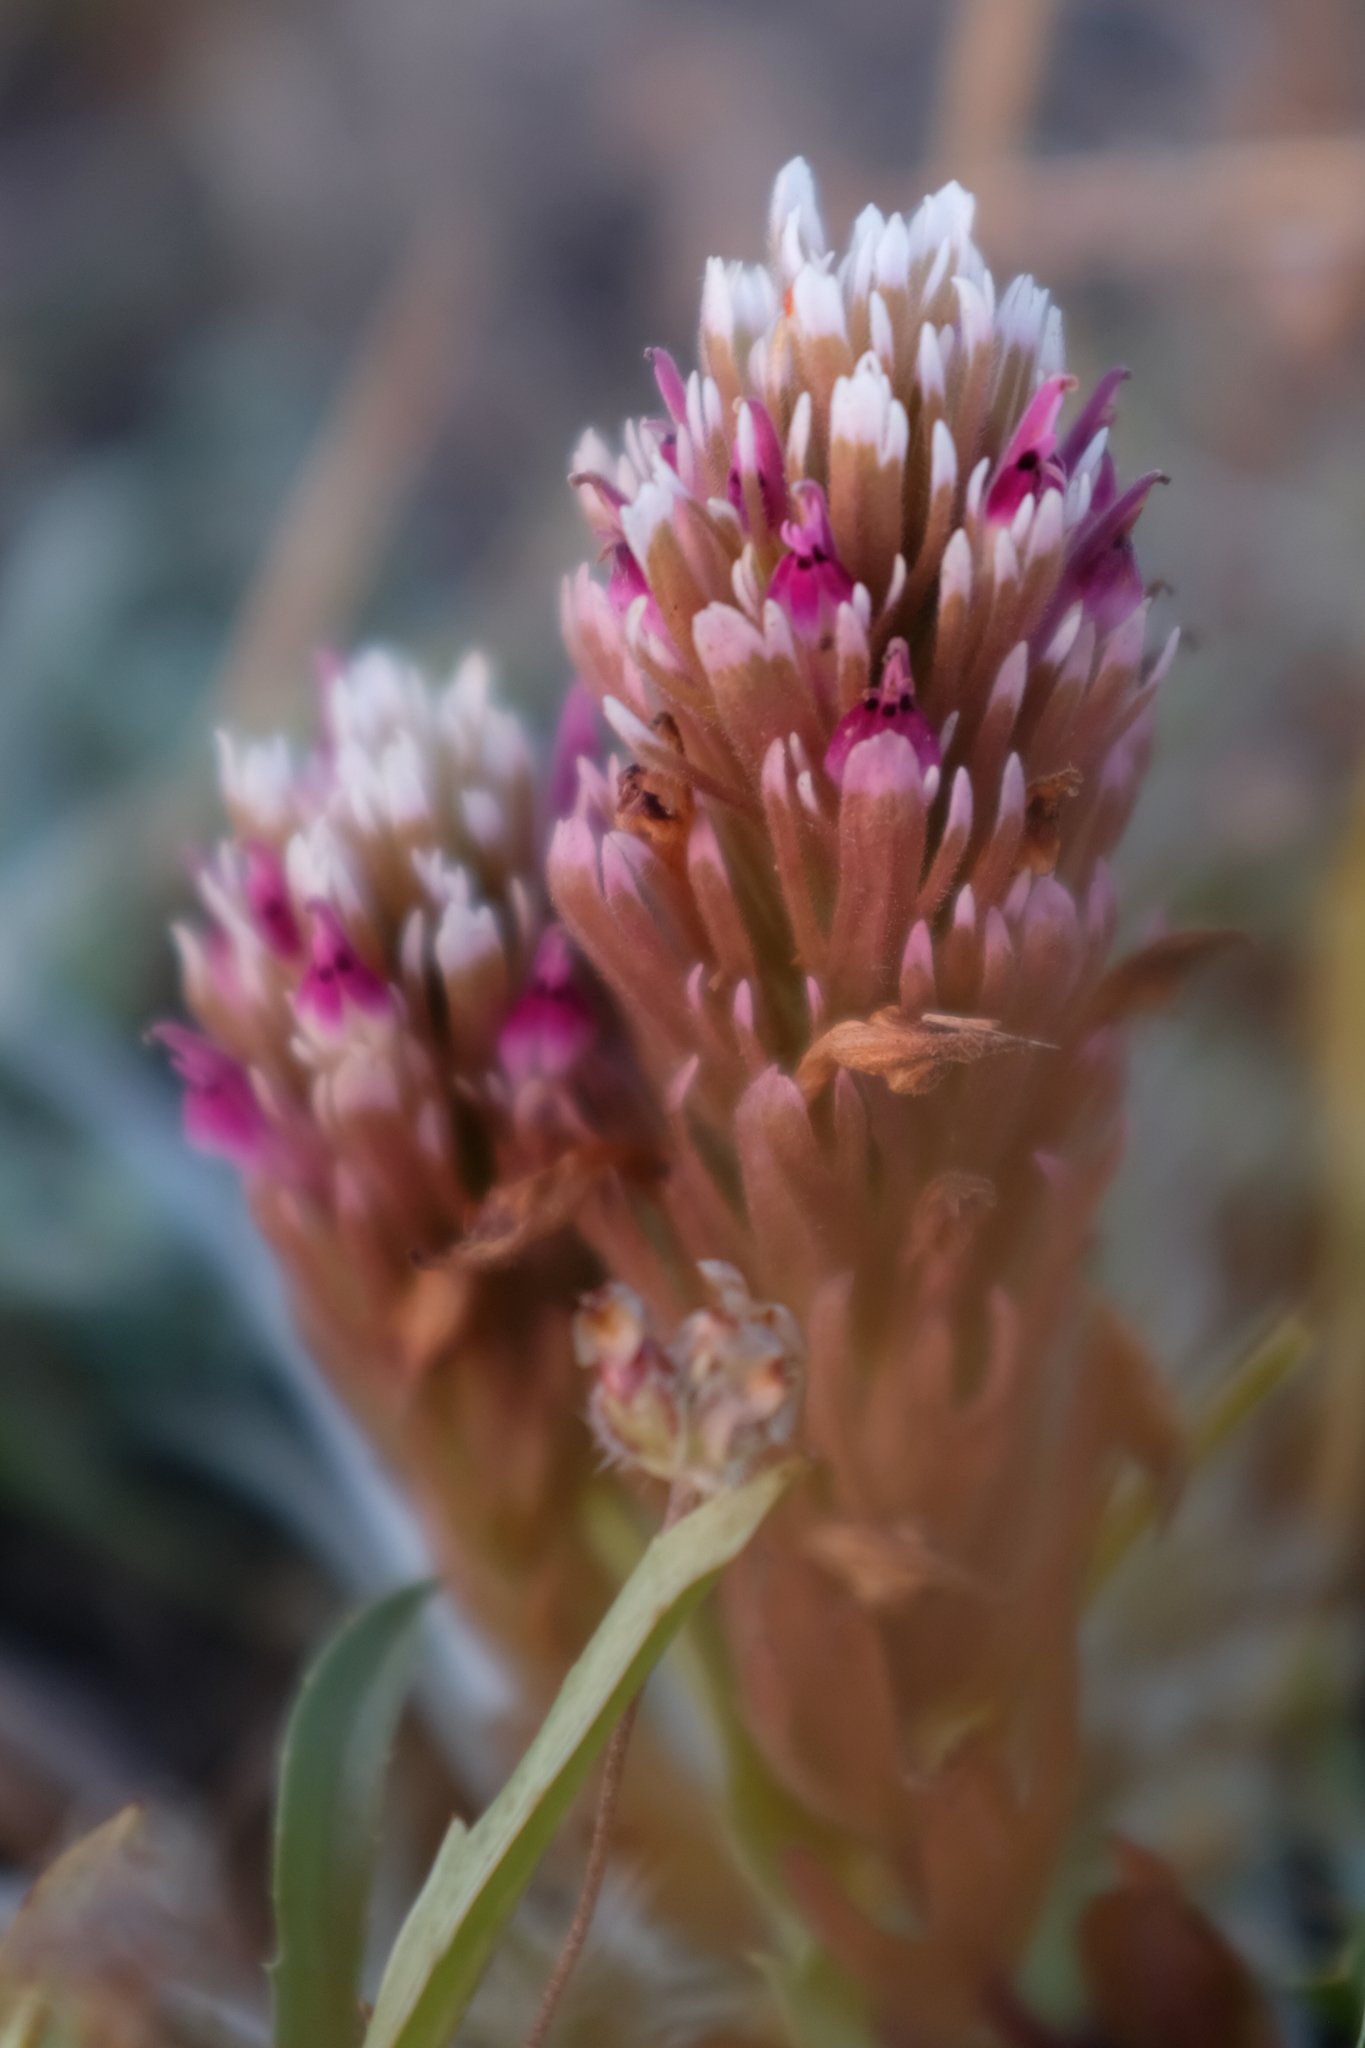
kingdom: Plantae
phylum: Tracheophyta
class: Magnoliopsida
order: Lamiales
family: Orobanchaceae
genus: Castilleja
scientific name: Castilleja ambigua
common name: Johnny-nip
